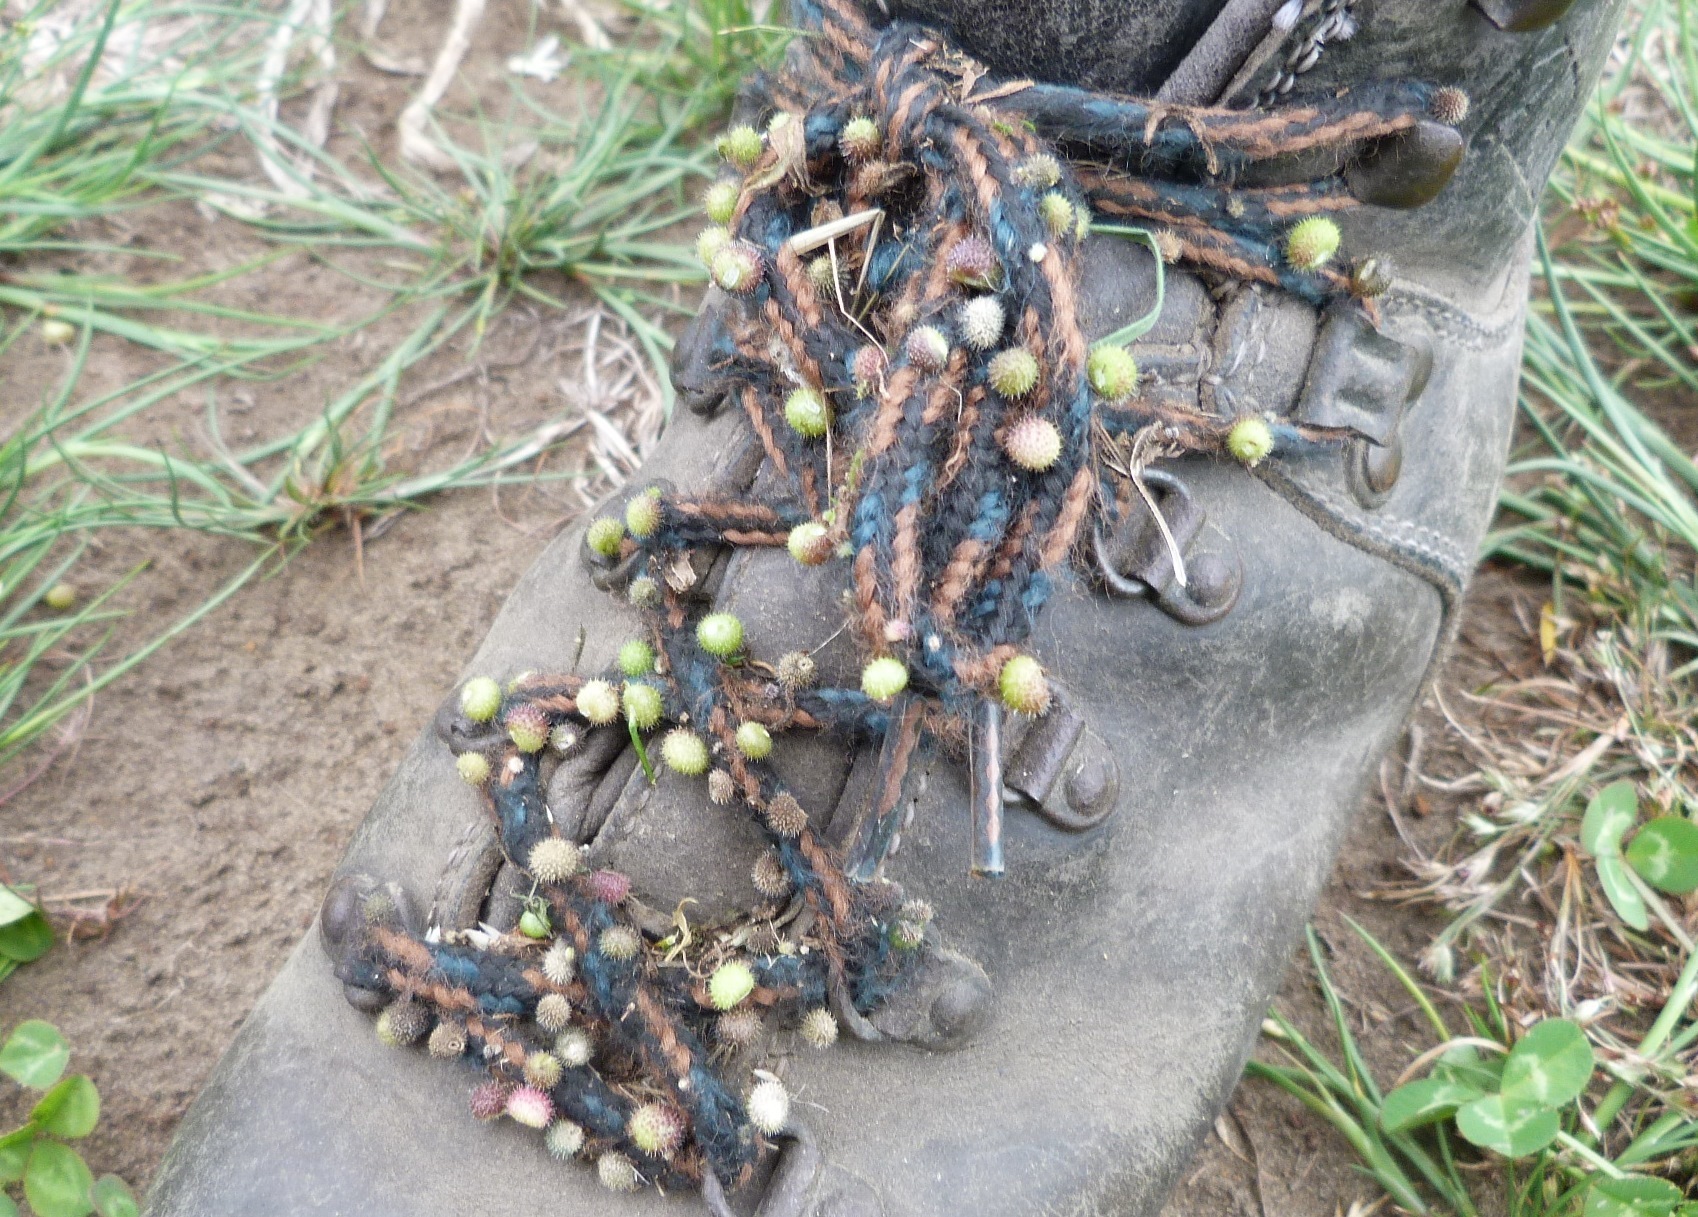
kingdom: Plantae
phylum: Tracheophyta
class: Magnoliopsida
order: Gentianales
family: Rubiaceae
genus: Galium
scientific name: Galium aparine
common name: Cleavers
